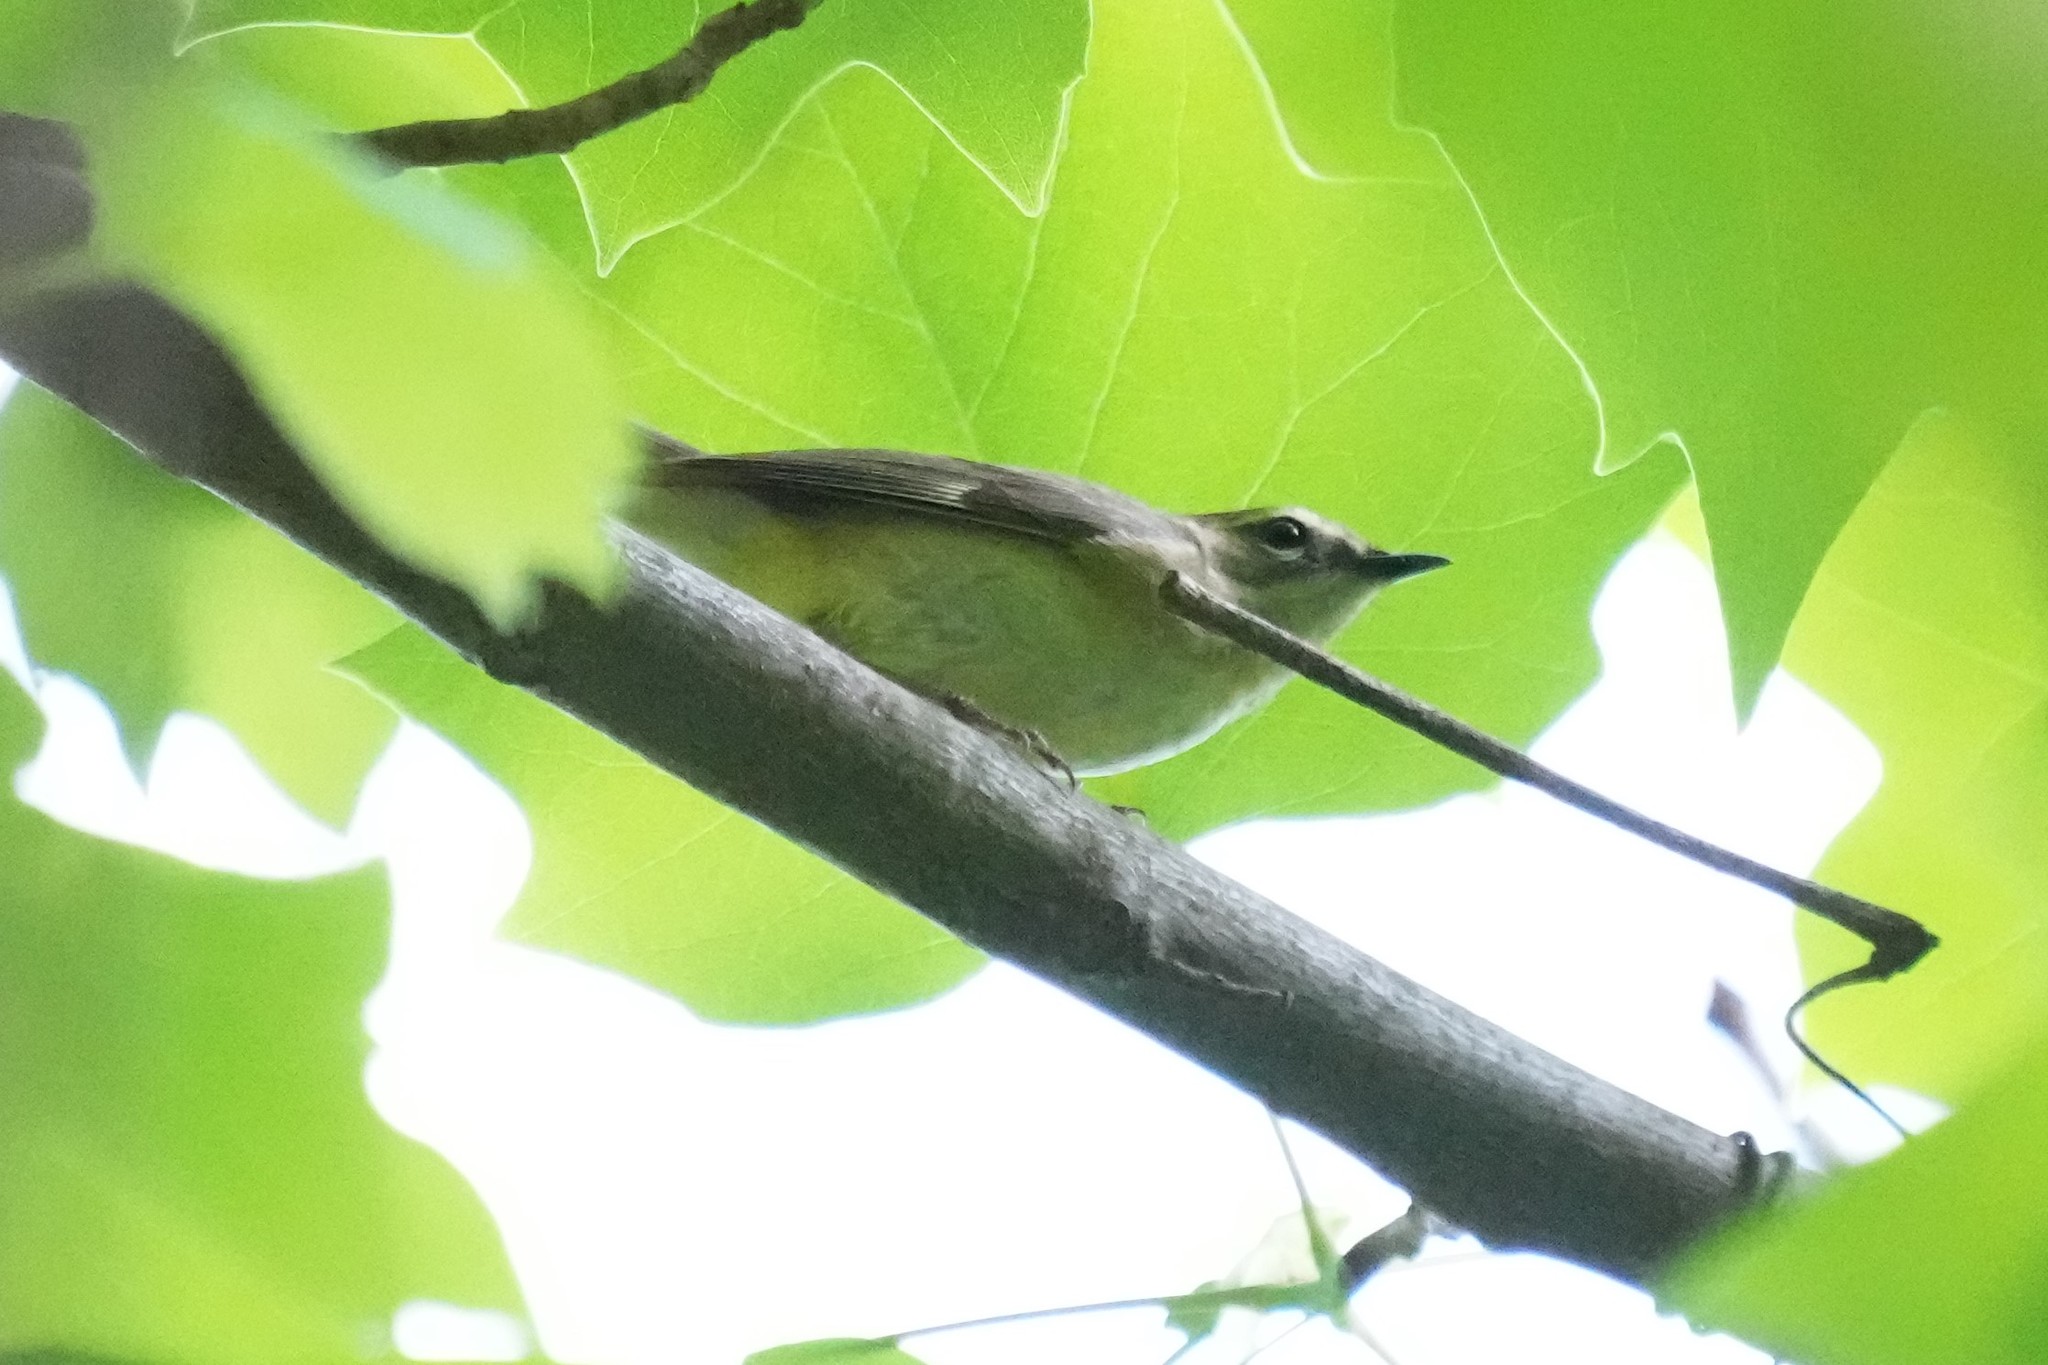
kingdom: Animalia
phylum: Chordata
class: Aves
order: Passeriformes
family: Parulidae
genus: Setophaga
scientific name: Setophaga caerulescens
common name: Black-throated blue warbler
